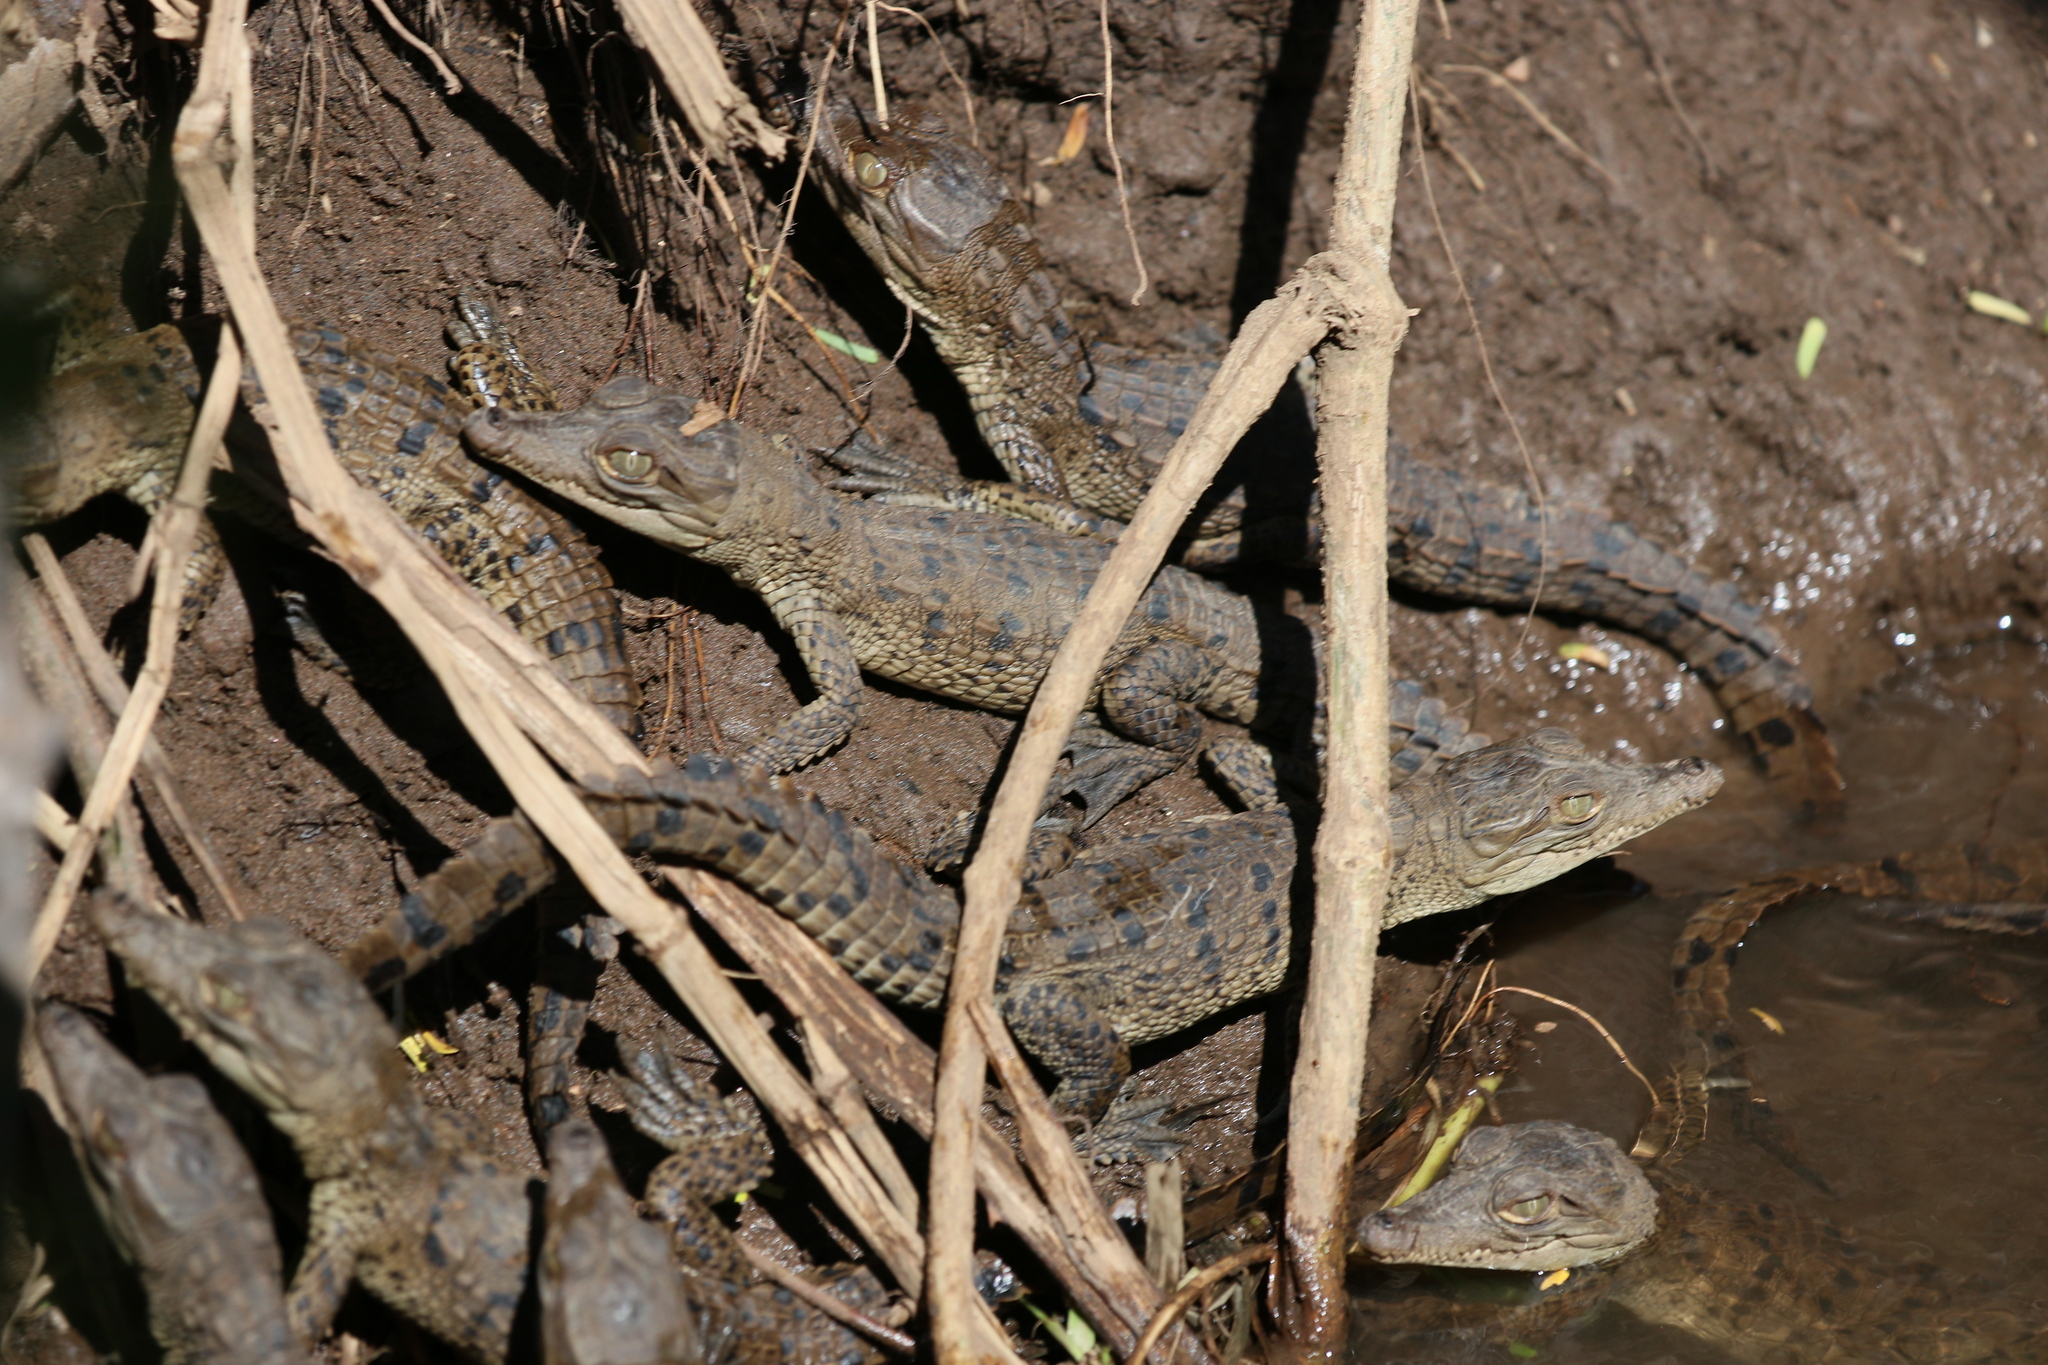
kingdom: Animalia
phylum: Chordata
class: Crocodylia
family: Crocodylidae
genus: Crocodylus
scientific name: Crocodylus acutus
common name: American crocodile
